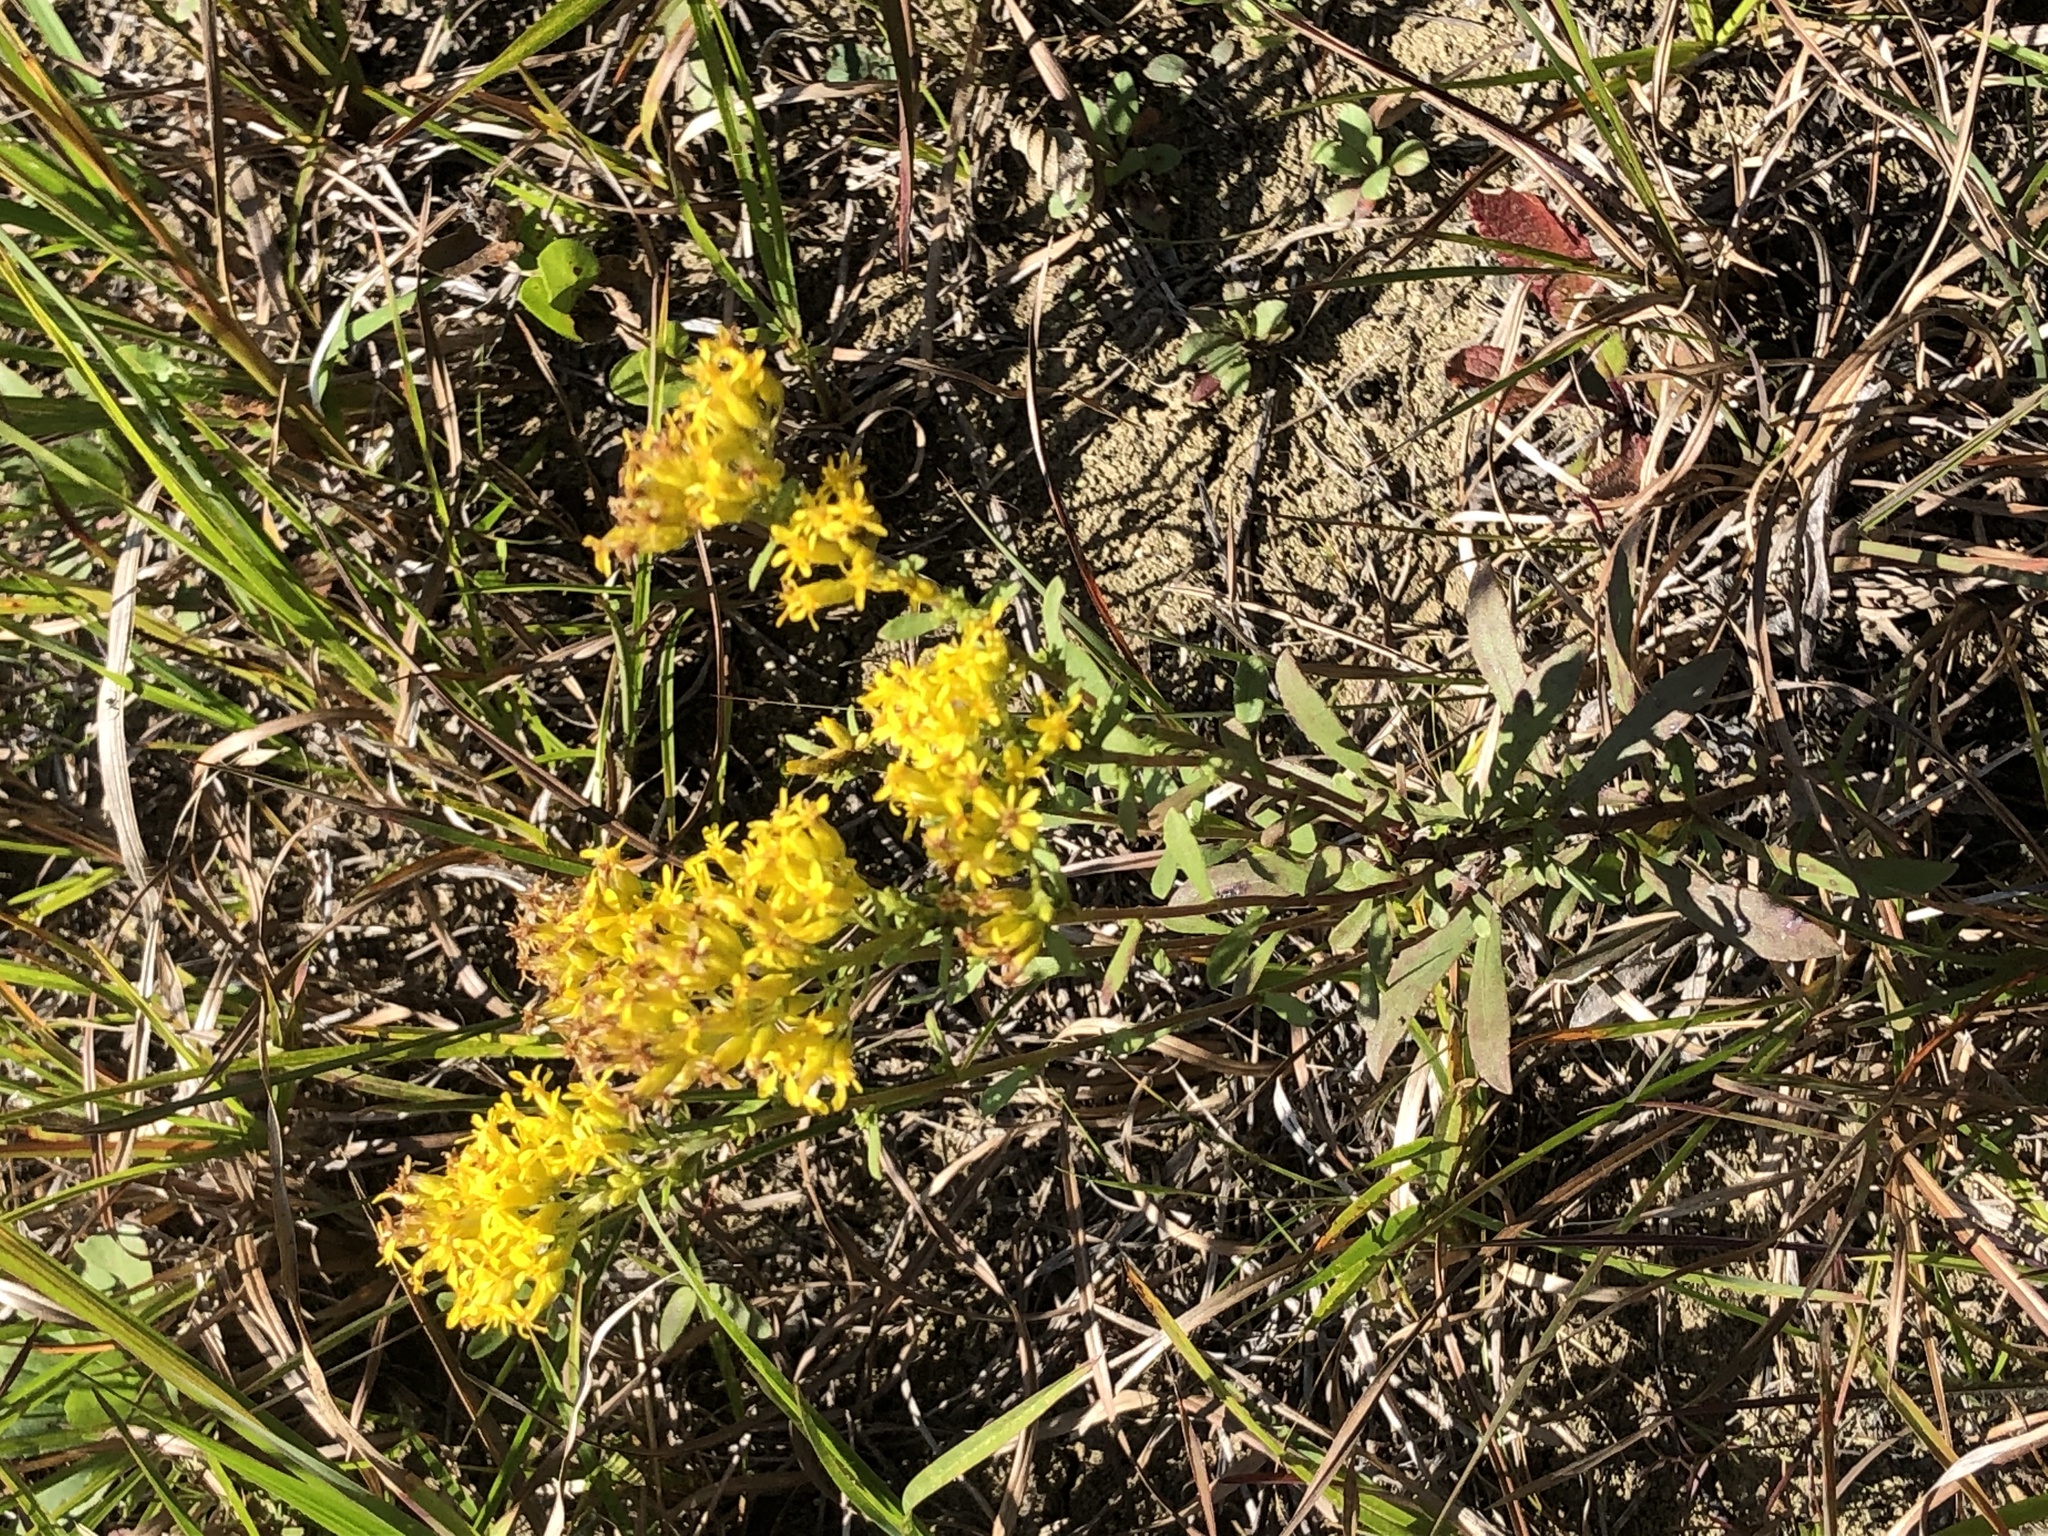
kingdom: Plantae
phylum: Tracheophyta
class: Magnoliopsida
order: Asterales
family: Asteraceae
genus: Solidago
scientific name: Solidago nemoralis
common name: Grey goldenrod
